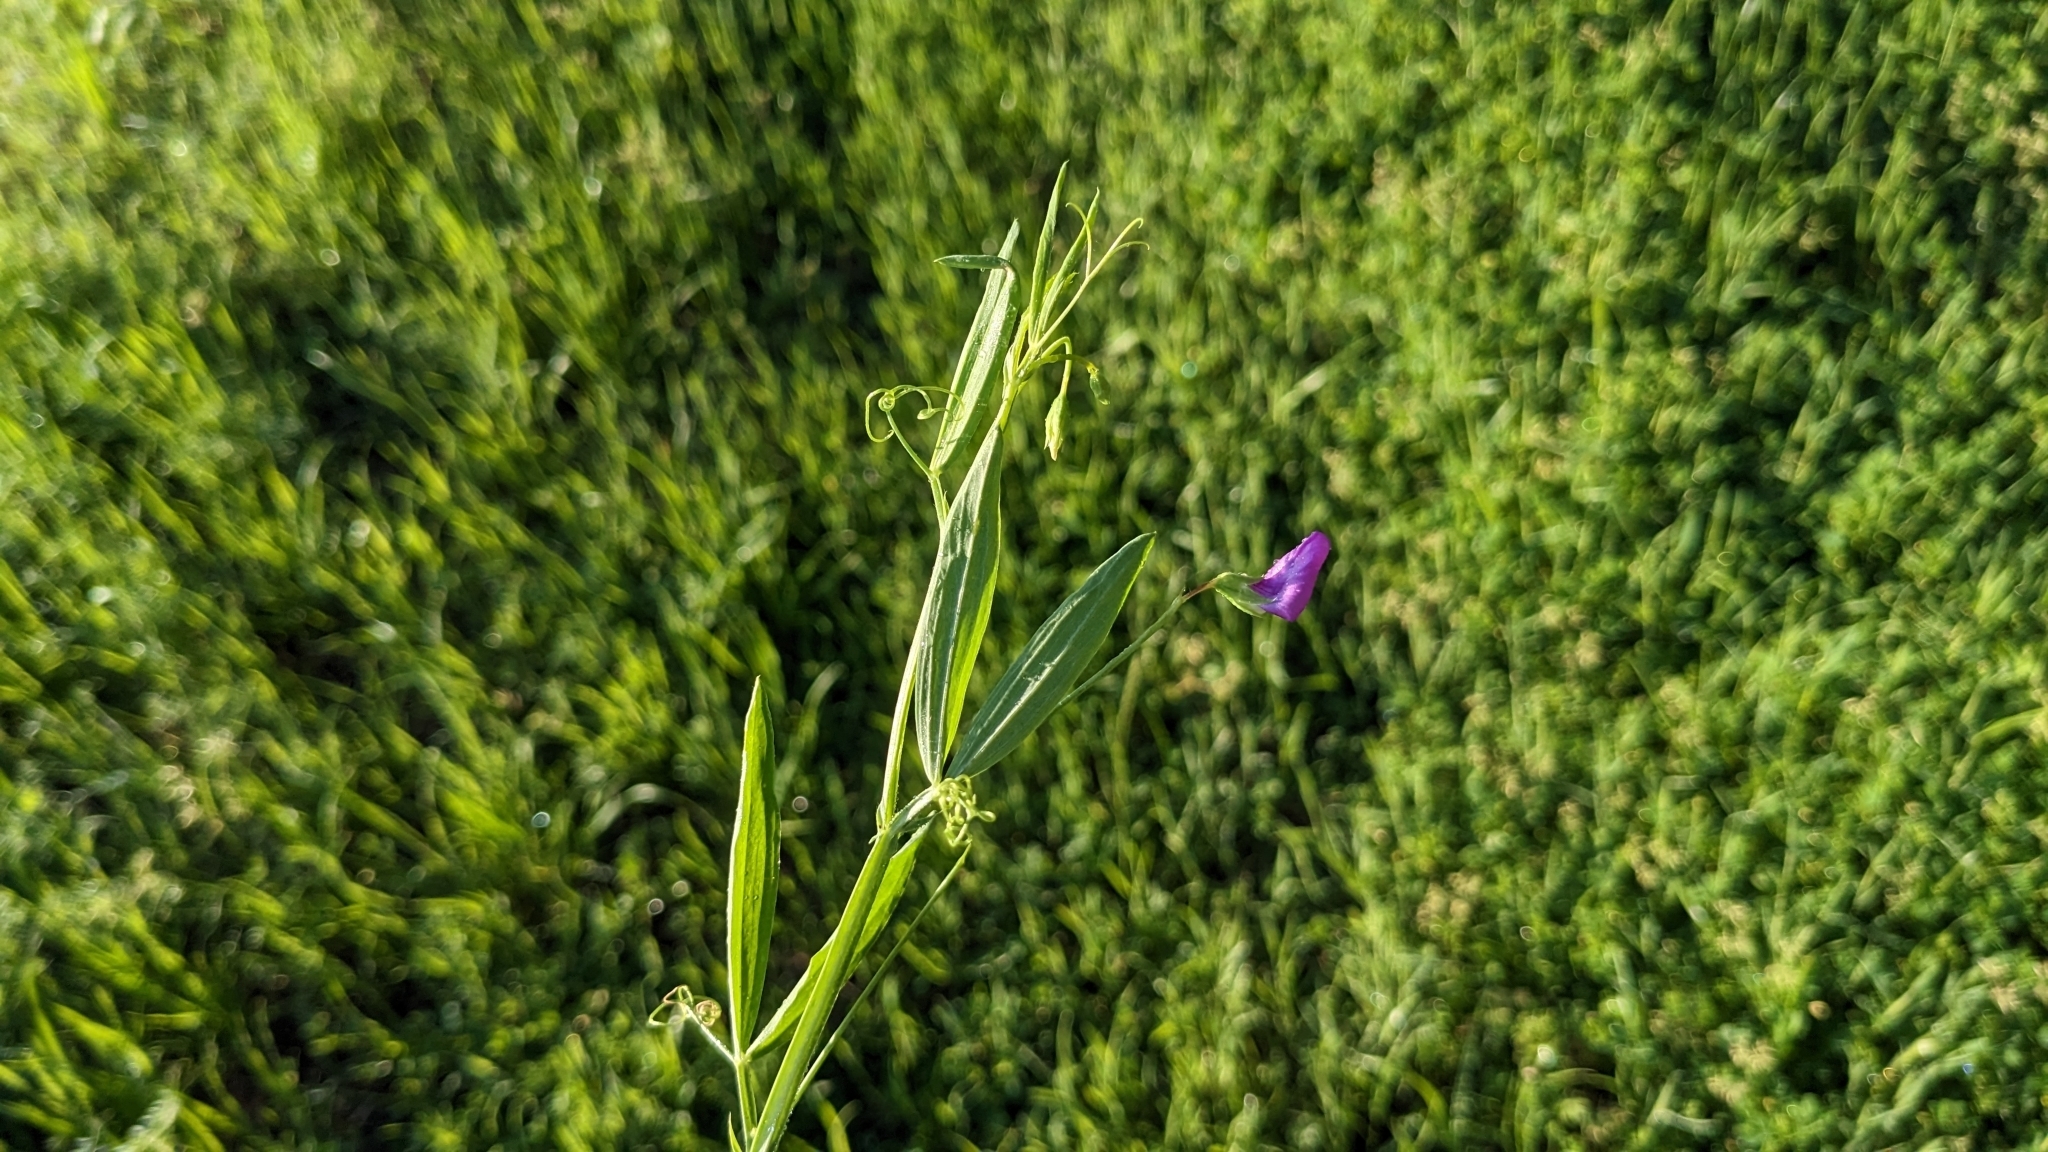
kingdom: Plantae
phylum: Tracheophyta
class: Magnoliopsida
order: Fabales
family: Fabaceae
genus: Lathyrus
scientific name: Lathyrus hirsutus
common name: Hairy vetchling
